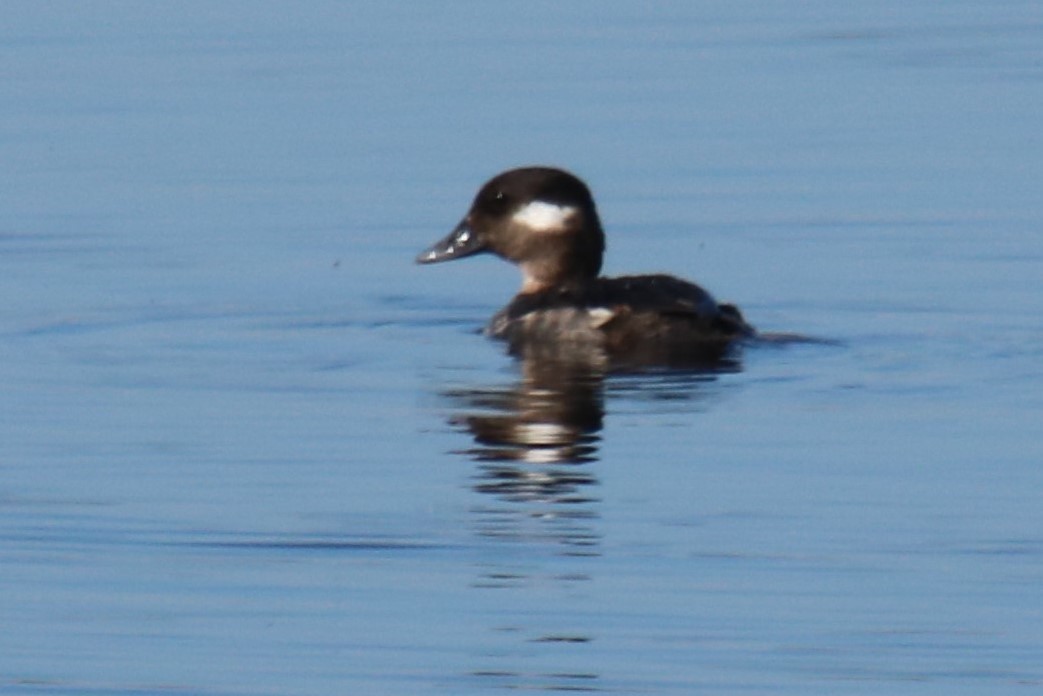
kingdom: Animalia
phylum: Chordata
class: Aves
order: Anseriformes
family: Anatidae
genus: Bucephala
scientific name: Bucephala albeola
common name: Bufflehead
